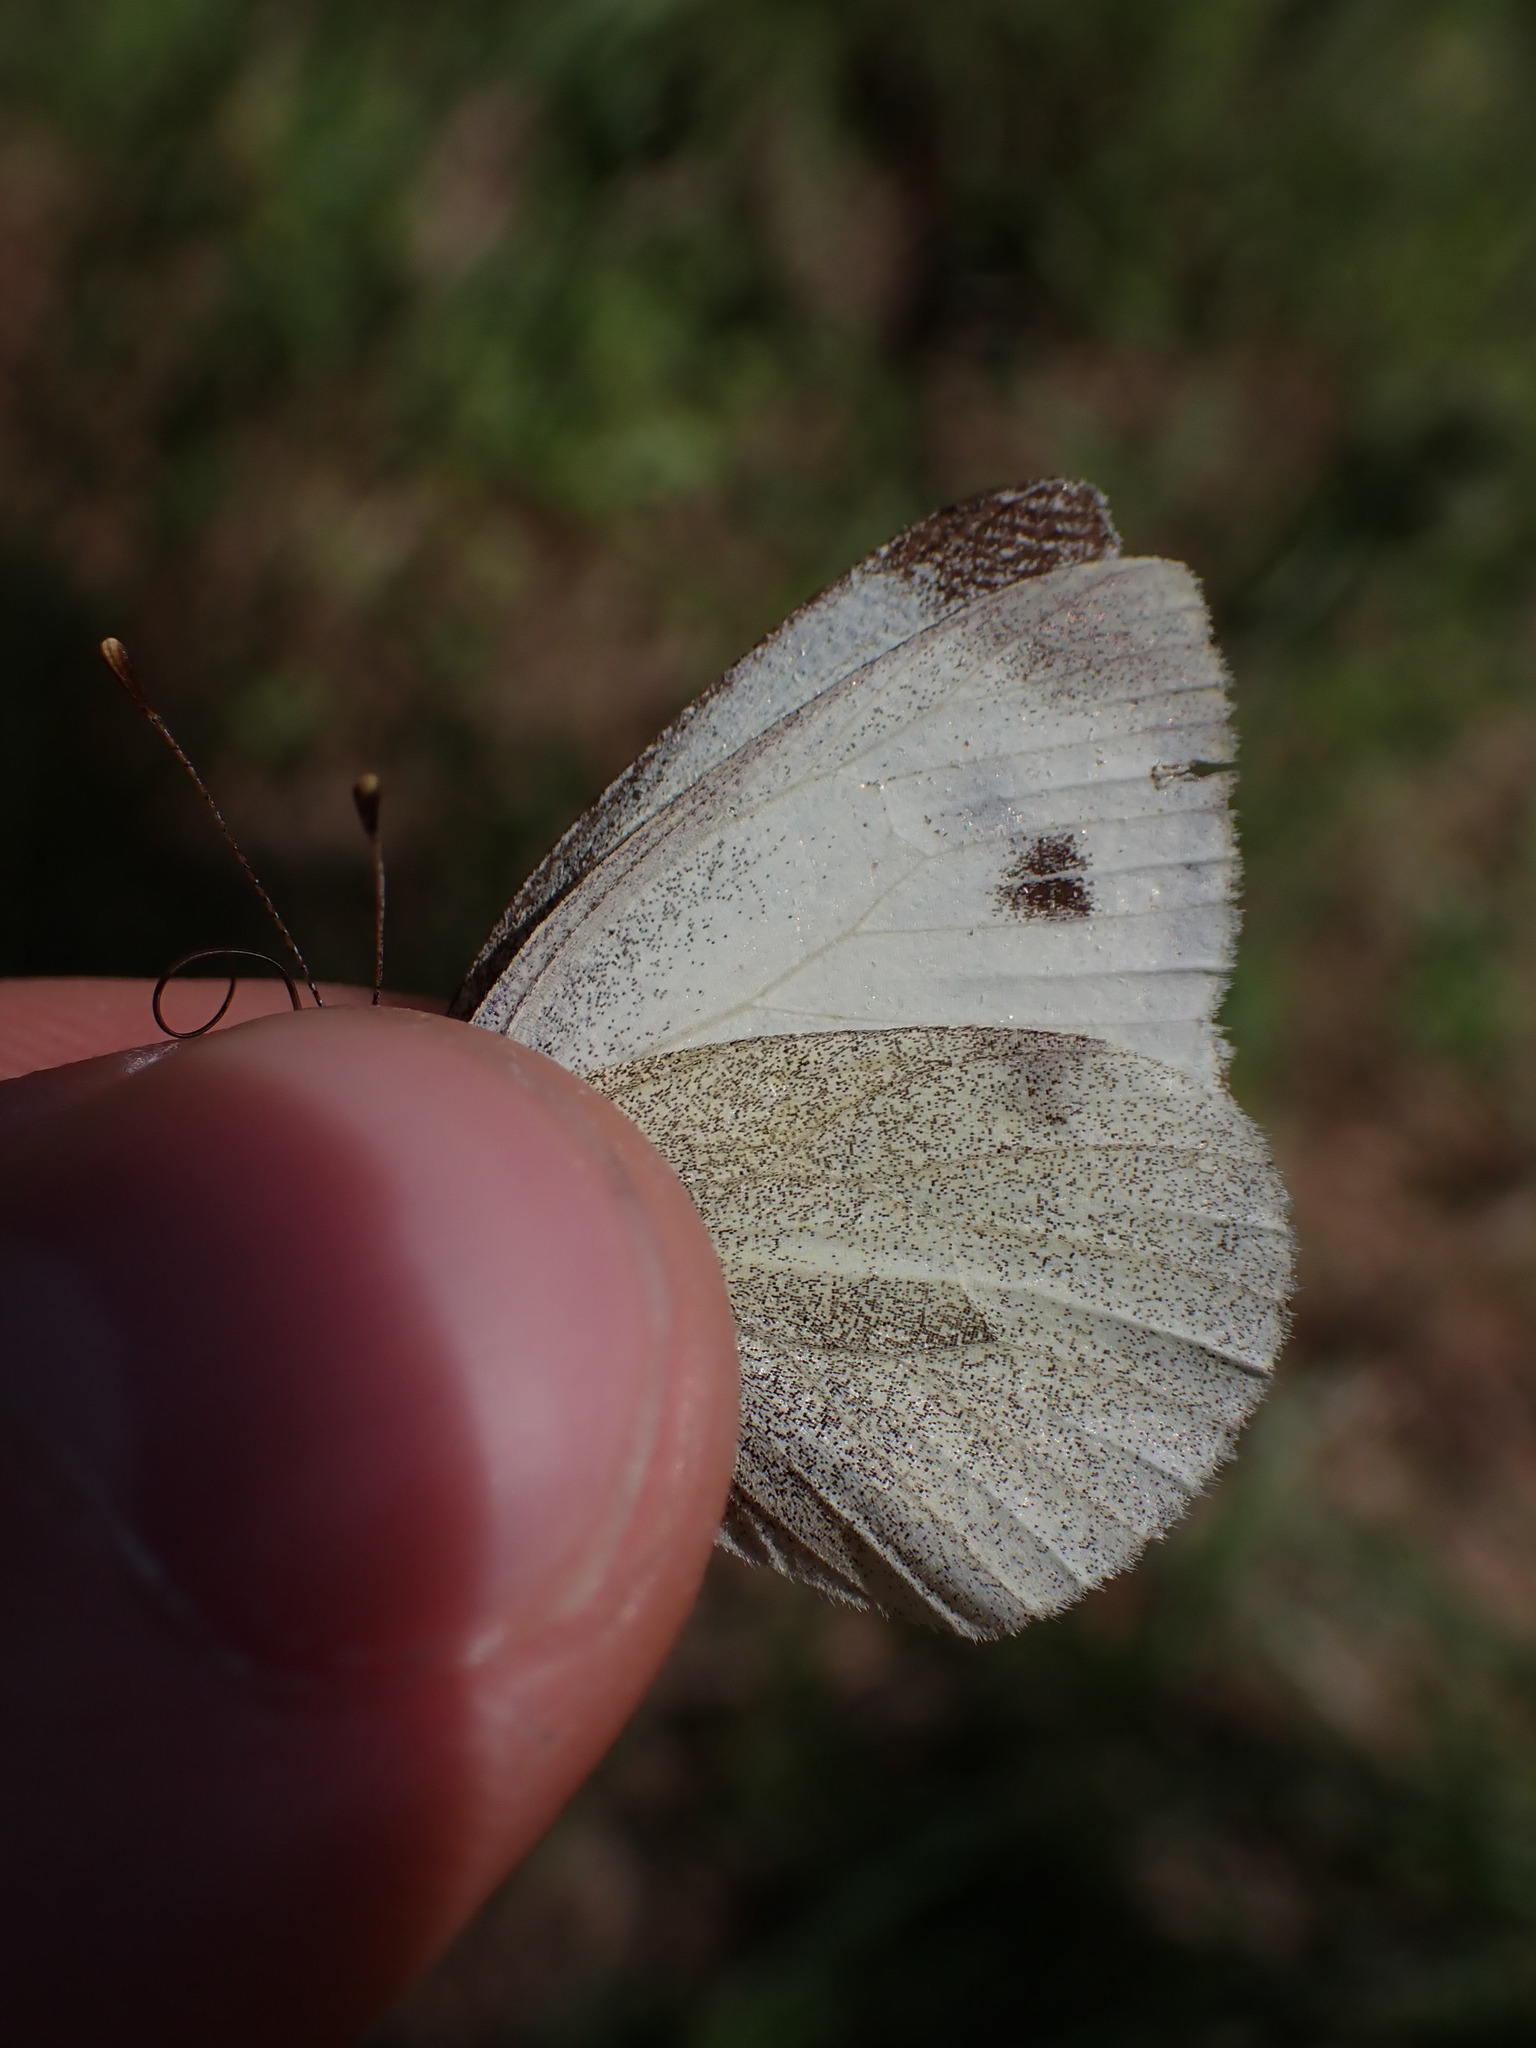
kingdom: Animalia
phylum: Arthropoda
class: Insecta
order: Lepidoptera
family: Pieridae
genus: Pieris
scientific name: Pieris mannii
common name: Southern small white
